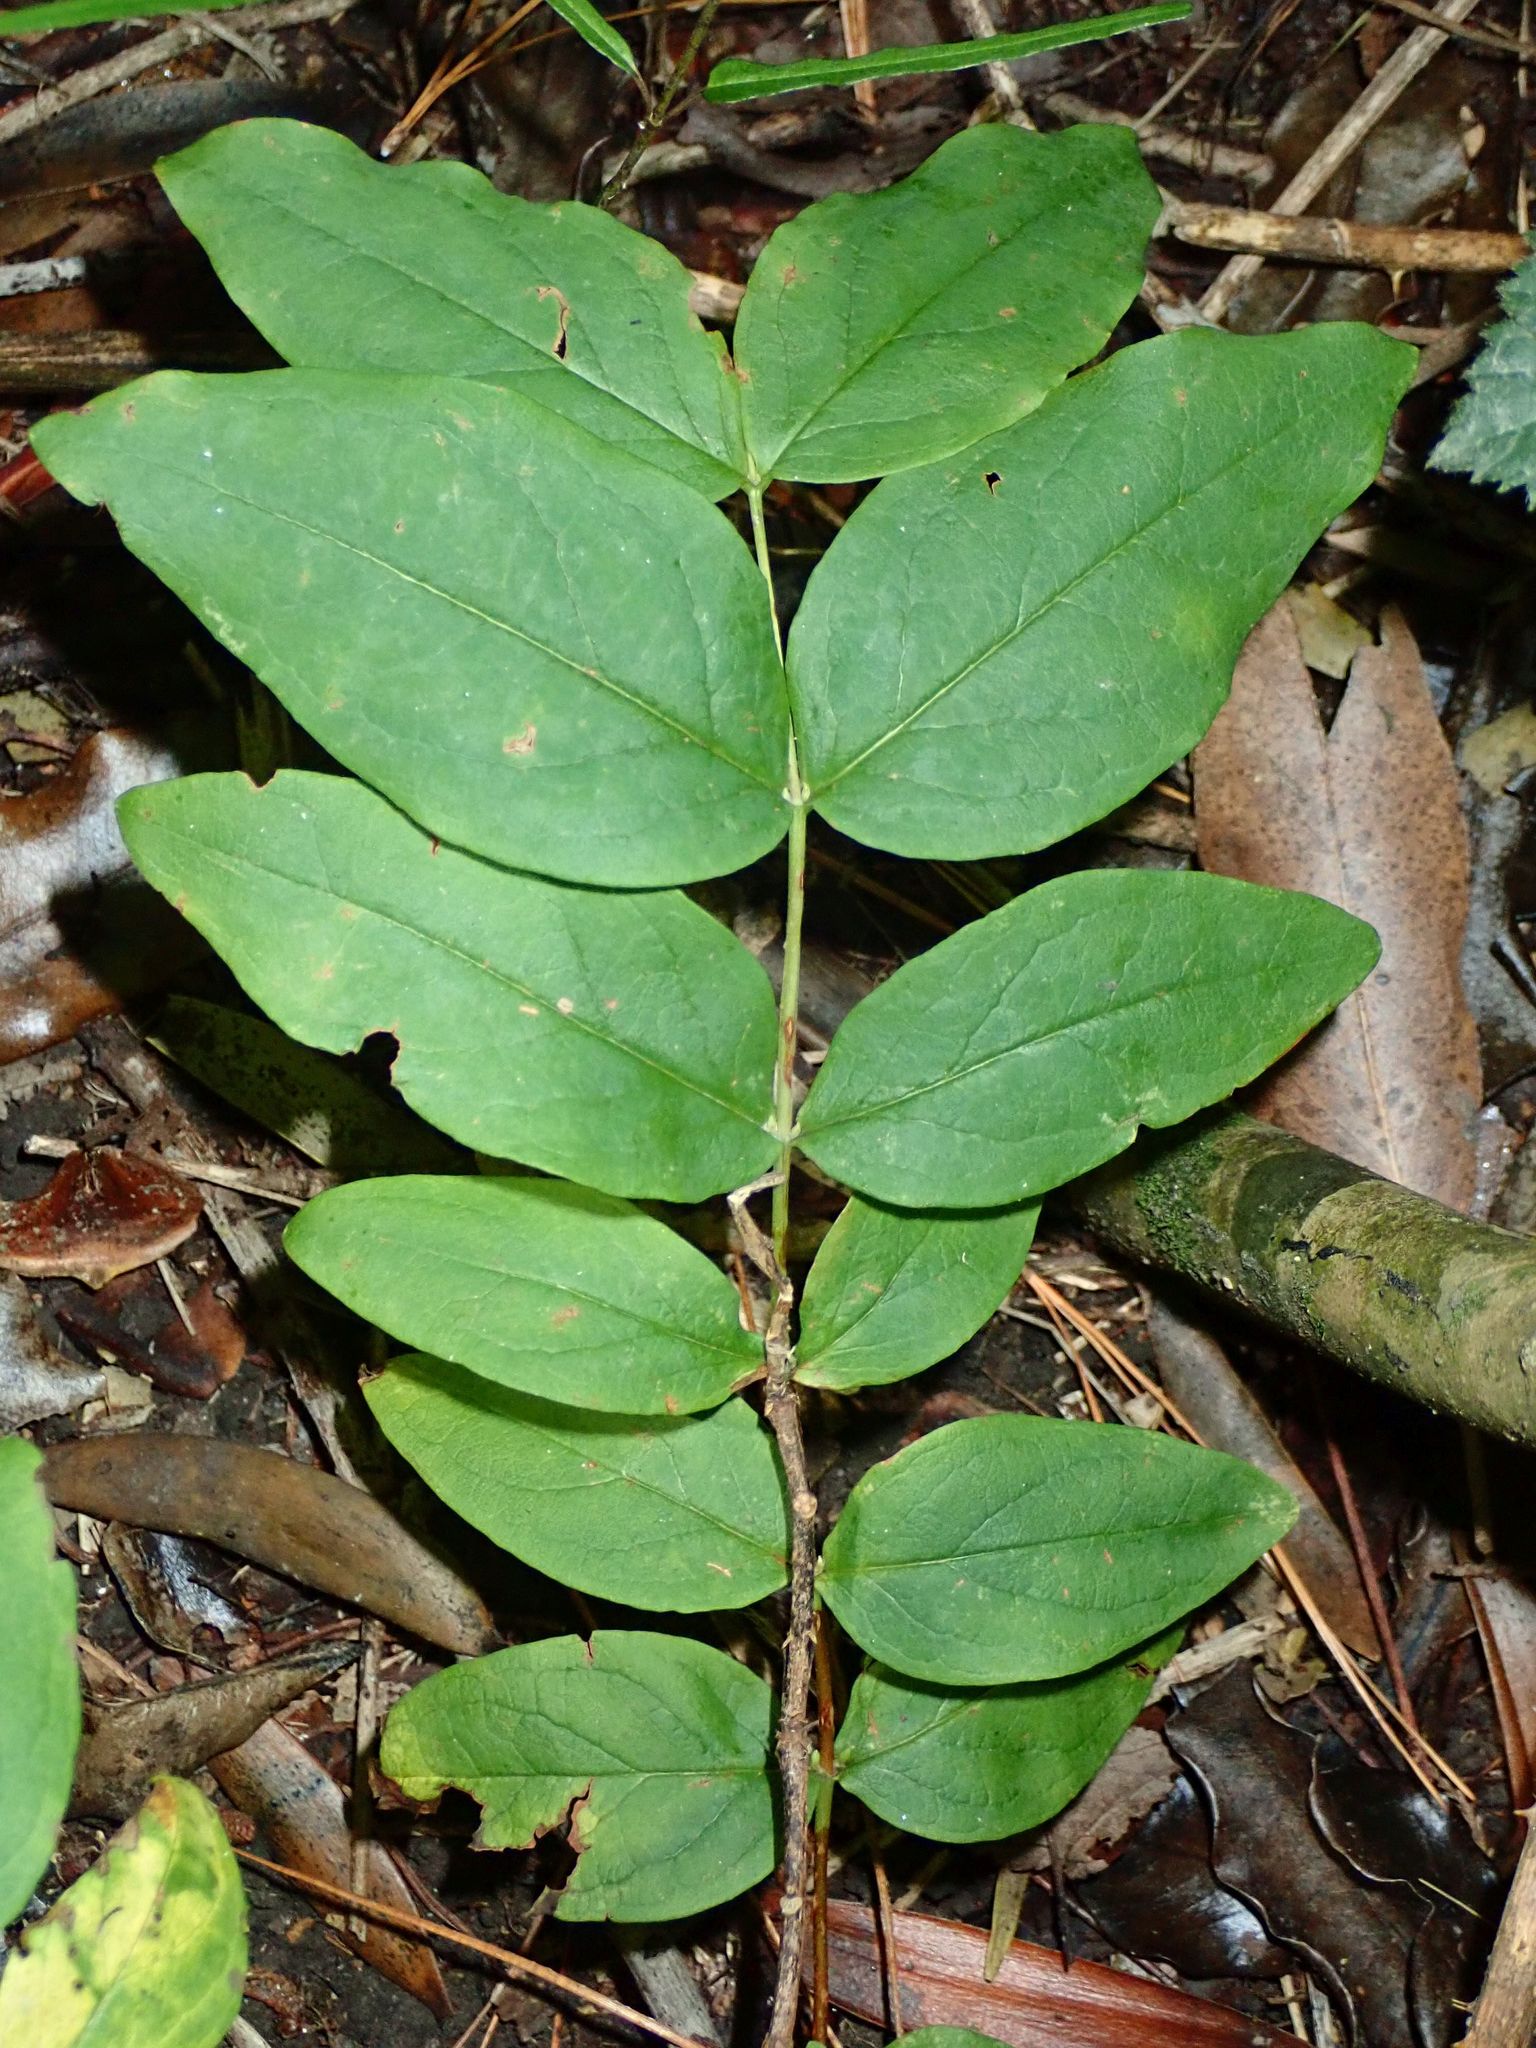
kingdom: Plantae
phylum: Tracheophyta
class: Magnoliopsida
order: Malpighiales
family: Hypericaceae
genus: Hypericum
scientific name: Hypericum androsaemum
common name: Sweet-amber
